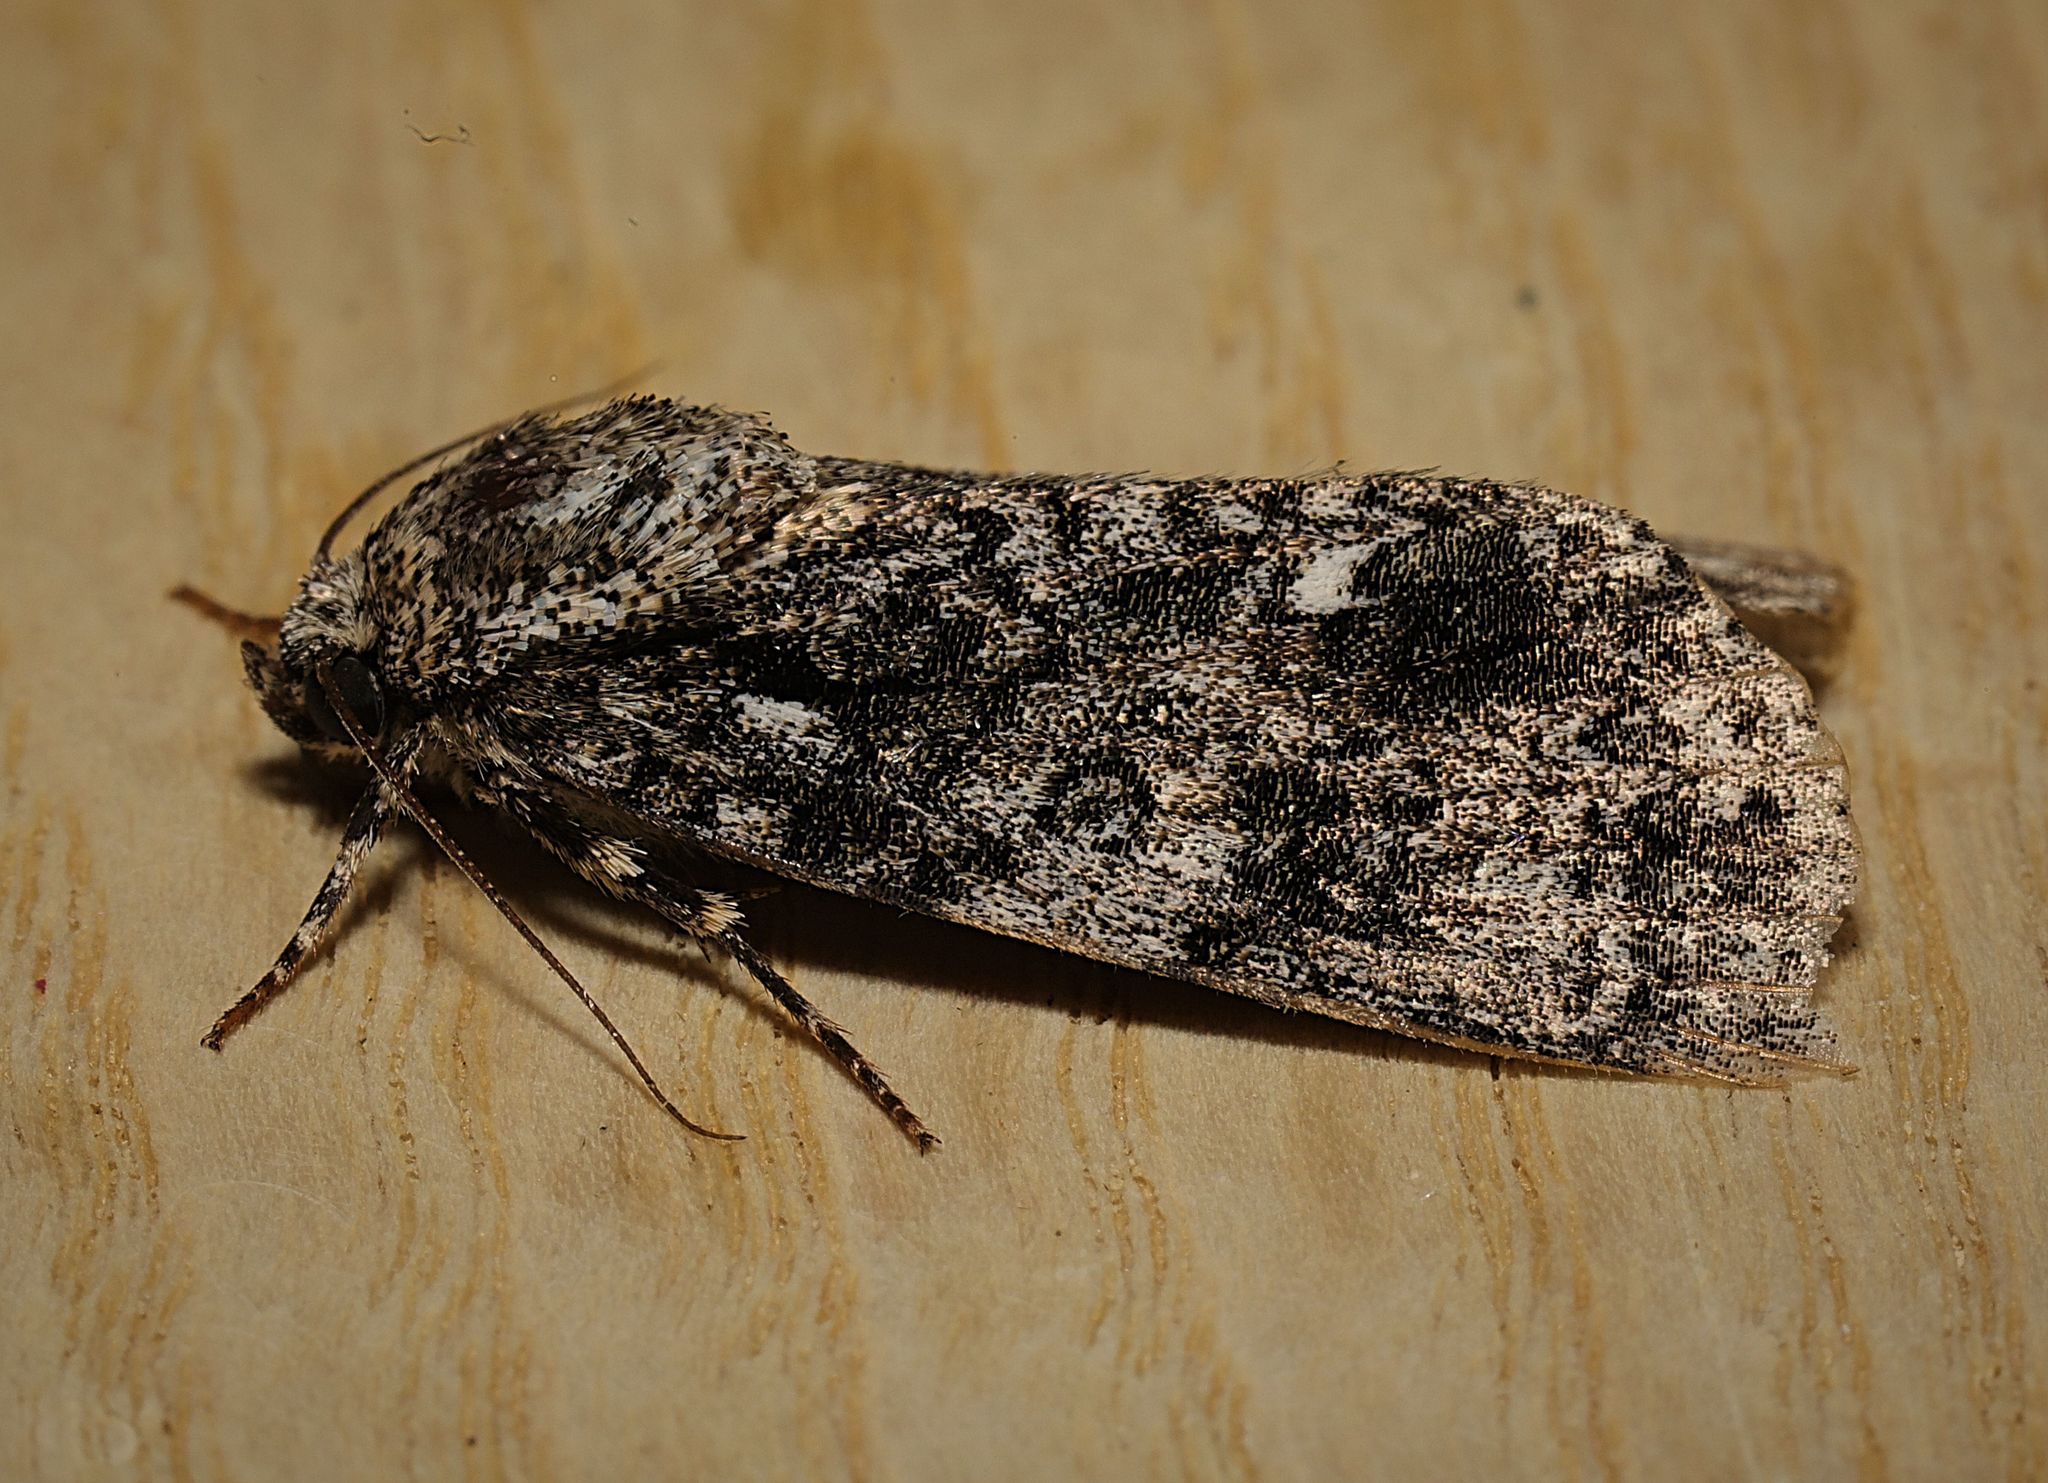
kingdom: Animalia
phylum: Arthropoda
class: Insecta
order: Lepidoptera
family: Noctuidae
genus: Acronicta
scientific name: Acronicta rumicis
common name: Knot grass
